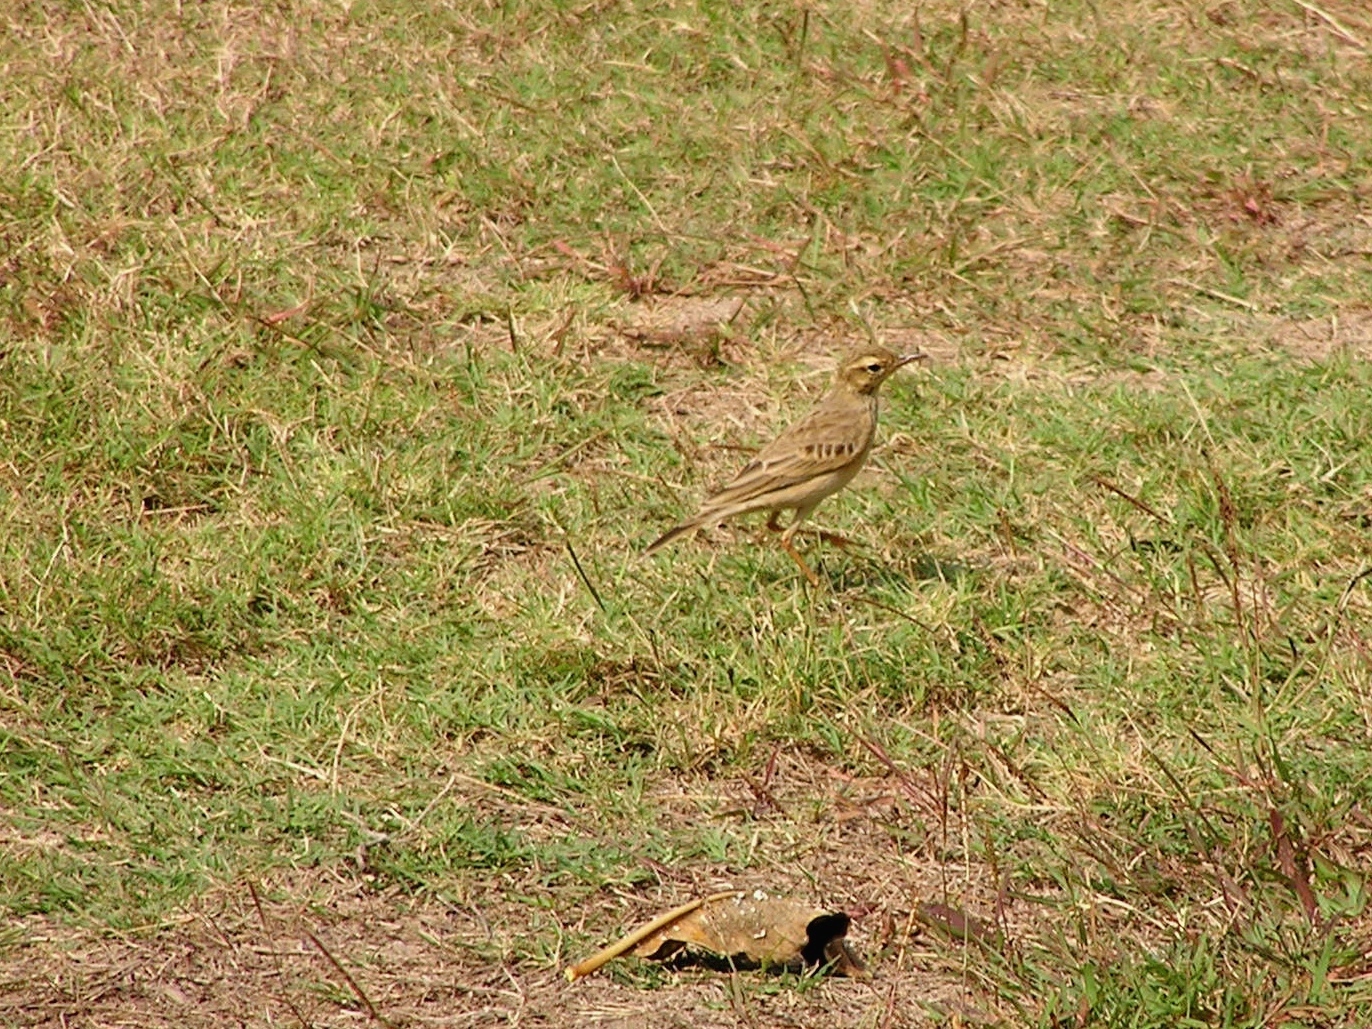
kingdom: Animalia
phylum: Chordata
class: Aves
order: Passeriformes
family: Motacillidae
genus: Anthus
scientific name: Anthus rufulus
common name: Paddyfield pipit
